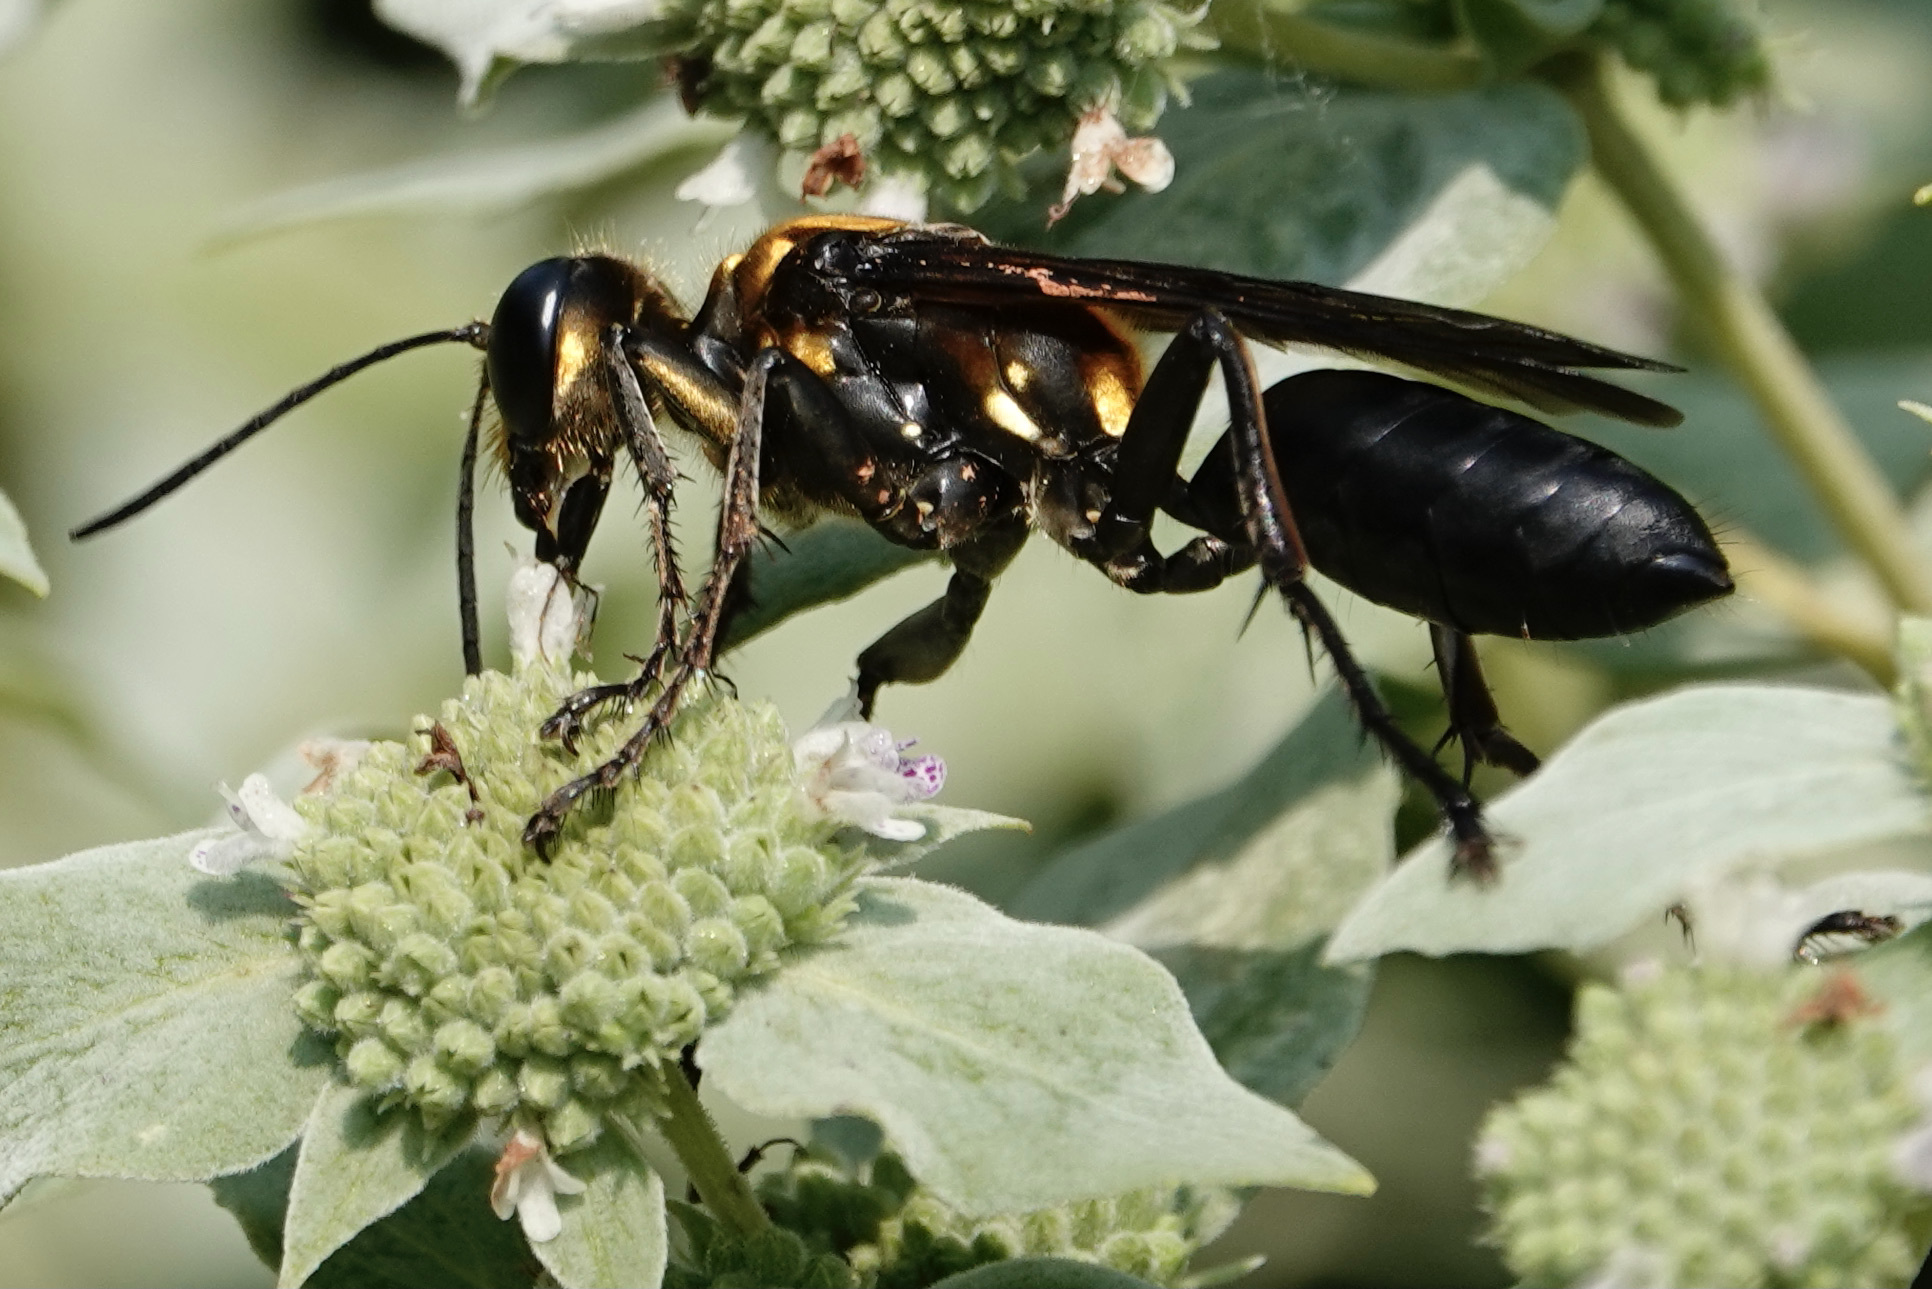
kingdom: Animalia
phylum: Arthropoda
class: Insecta
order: Hymenoptera
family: Sphecidae
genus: Sphex
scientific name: Sphex habenus
